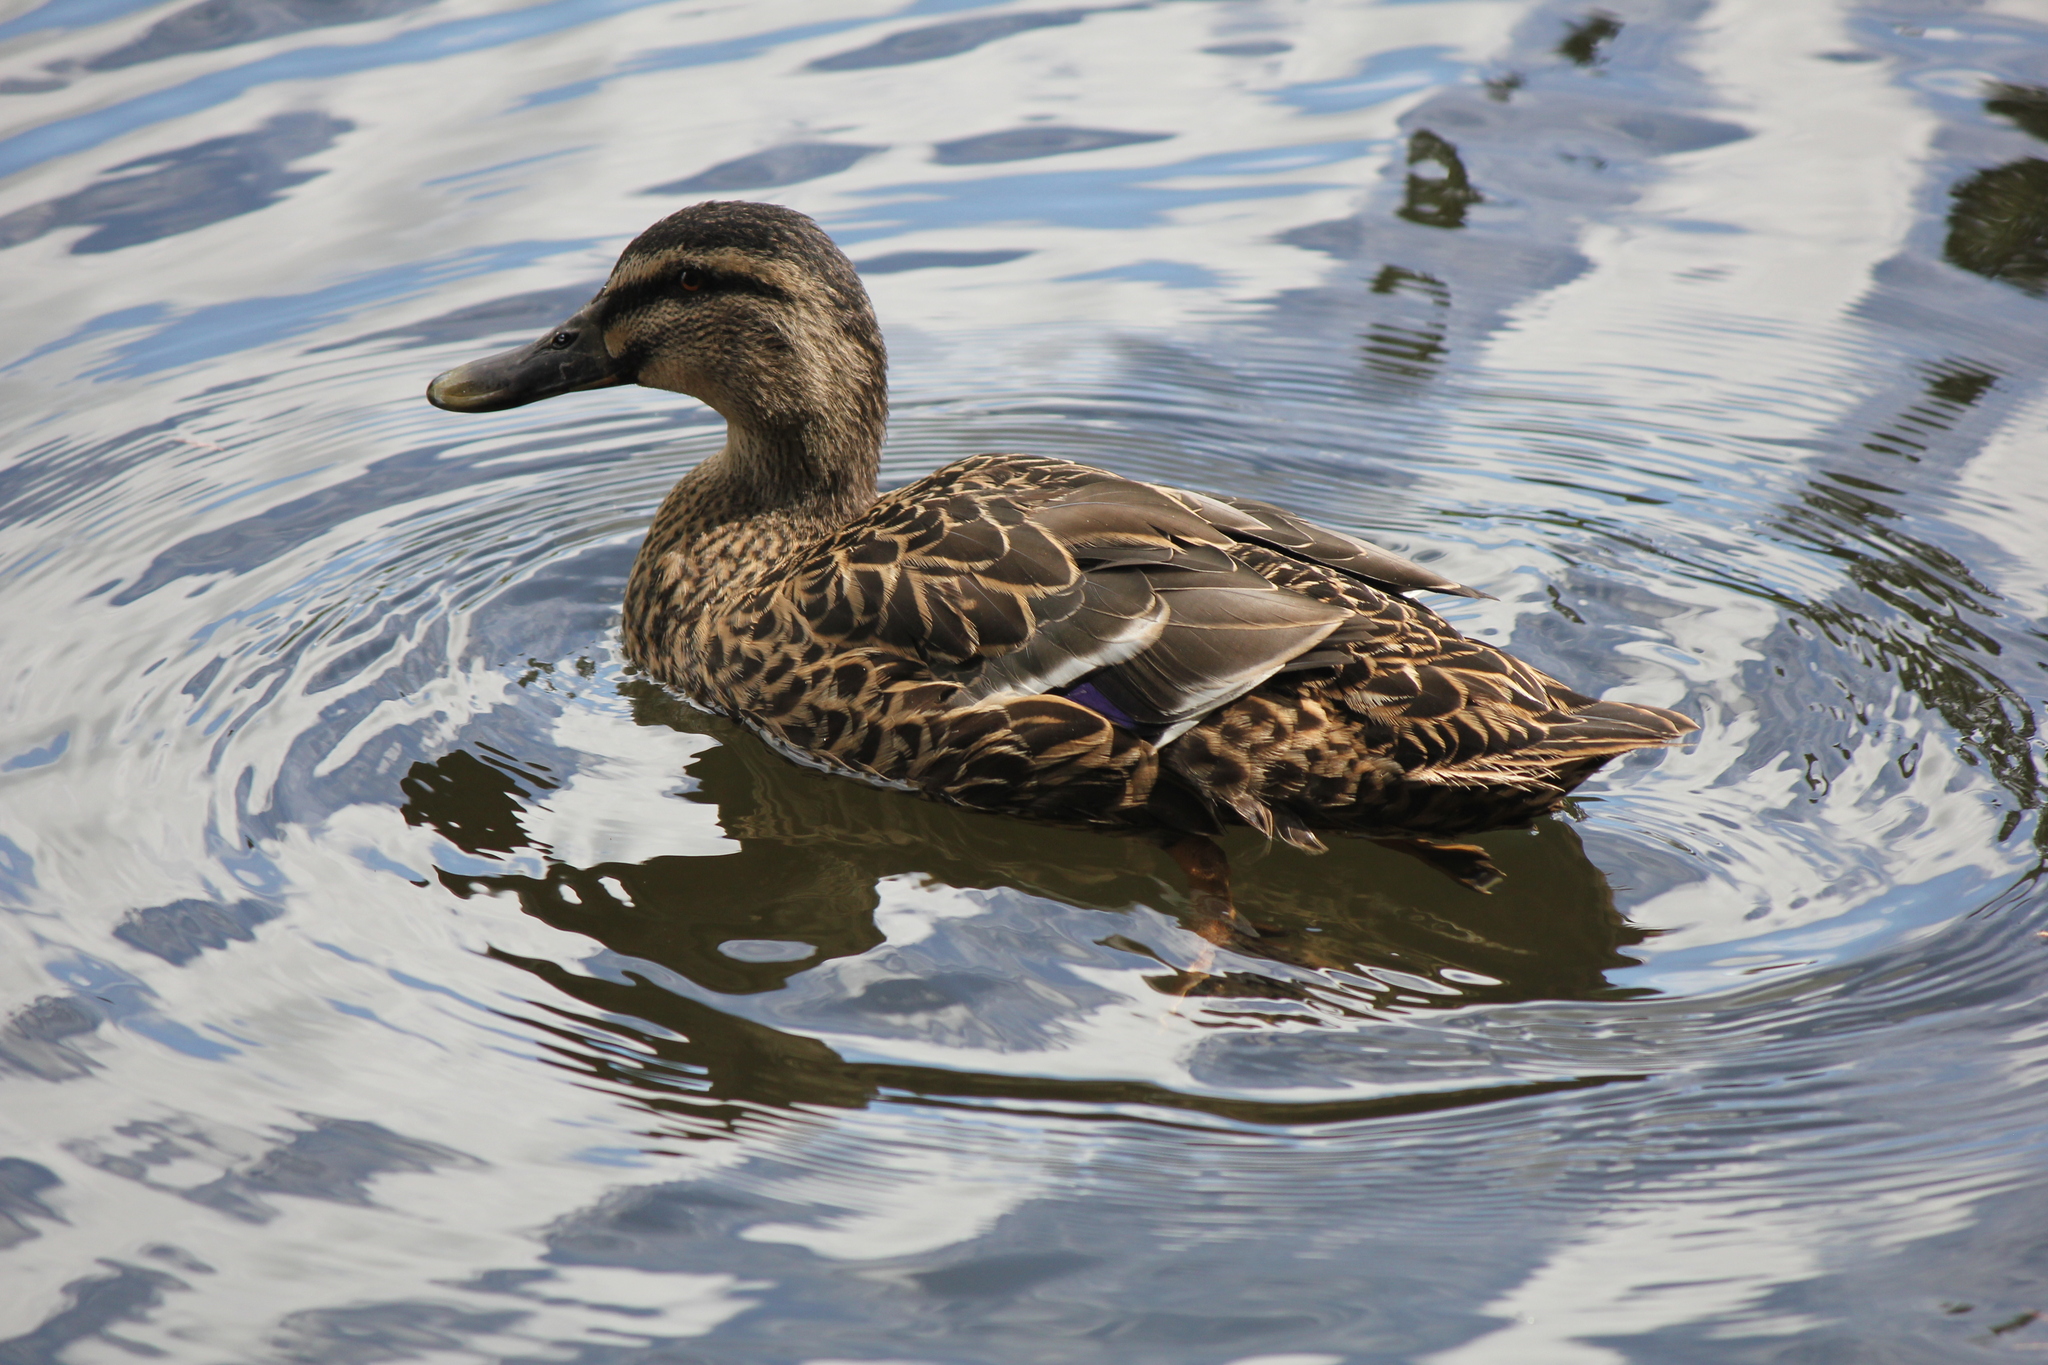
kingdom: Animalia
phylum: Chordata
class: Aves
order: Anseriformes
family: Anatidae
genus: Anas
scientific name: Anas
